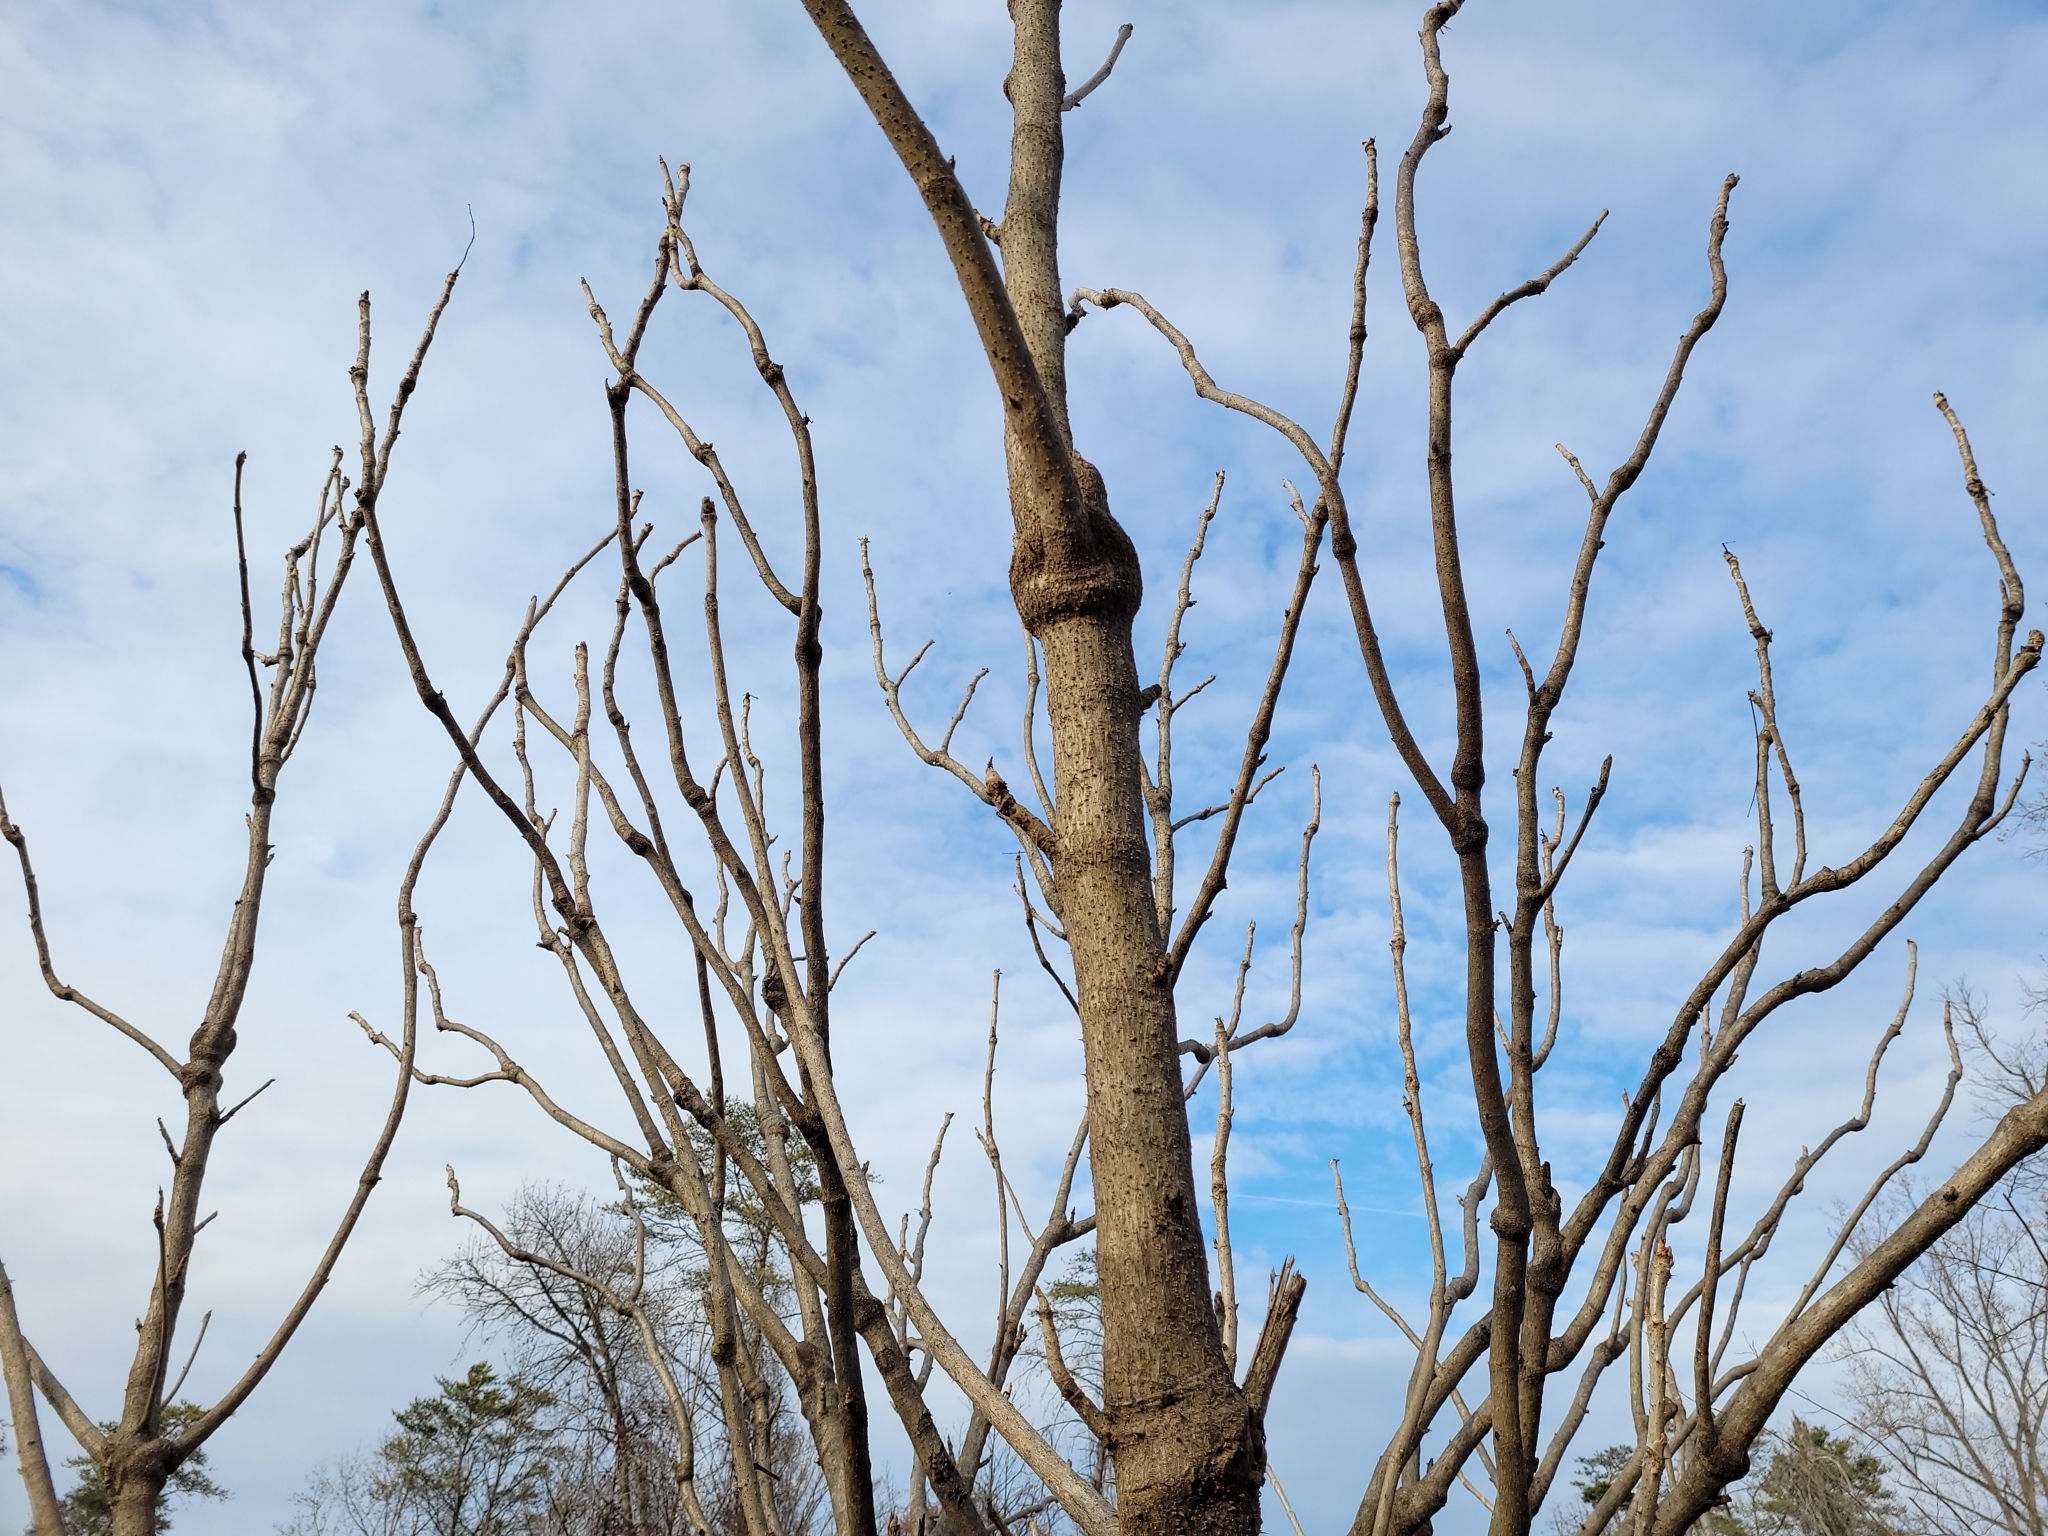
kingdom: Plantae
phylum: Tracheophyta
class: Magnoliopsida
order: Apiales
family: Araliaceae
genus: Aralia
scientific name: Aralia spinosa
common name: Hercules'-club
